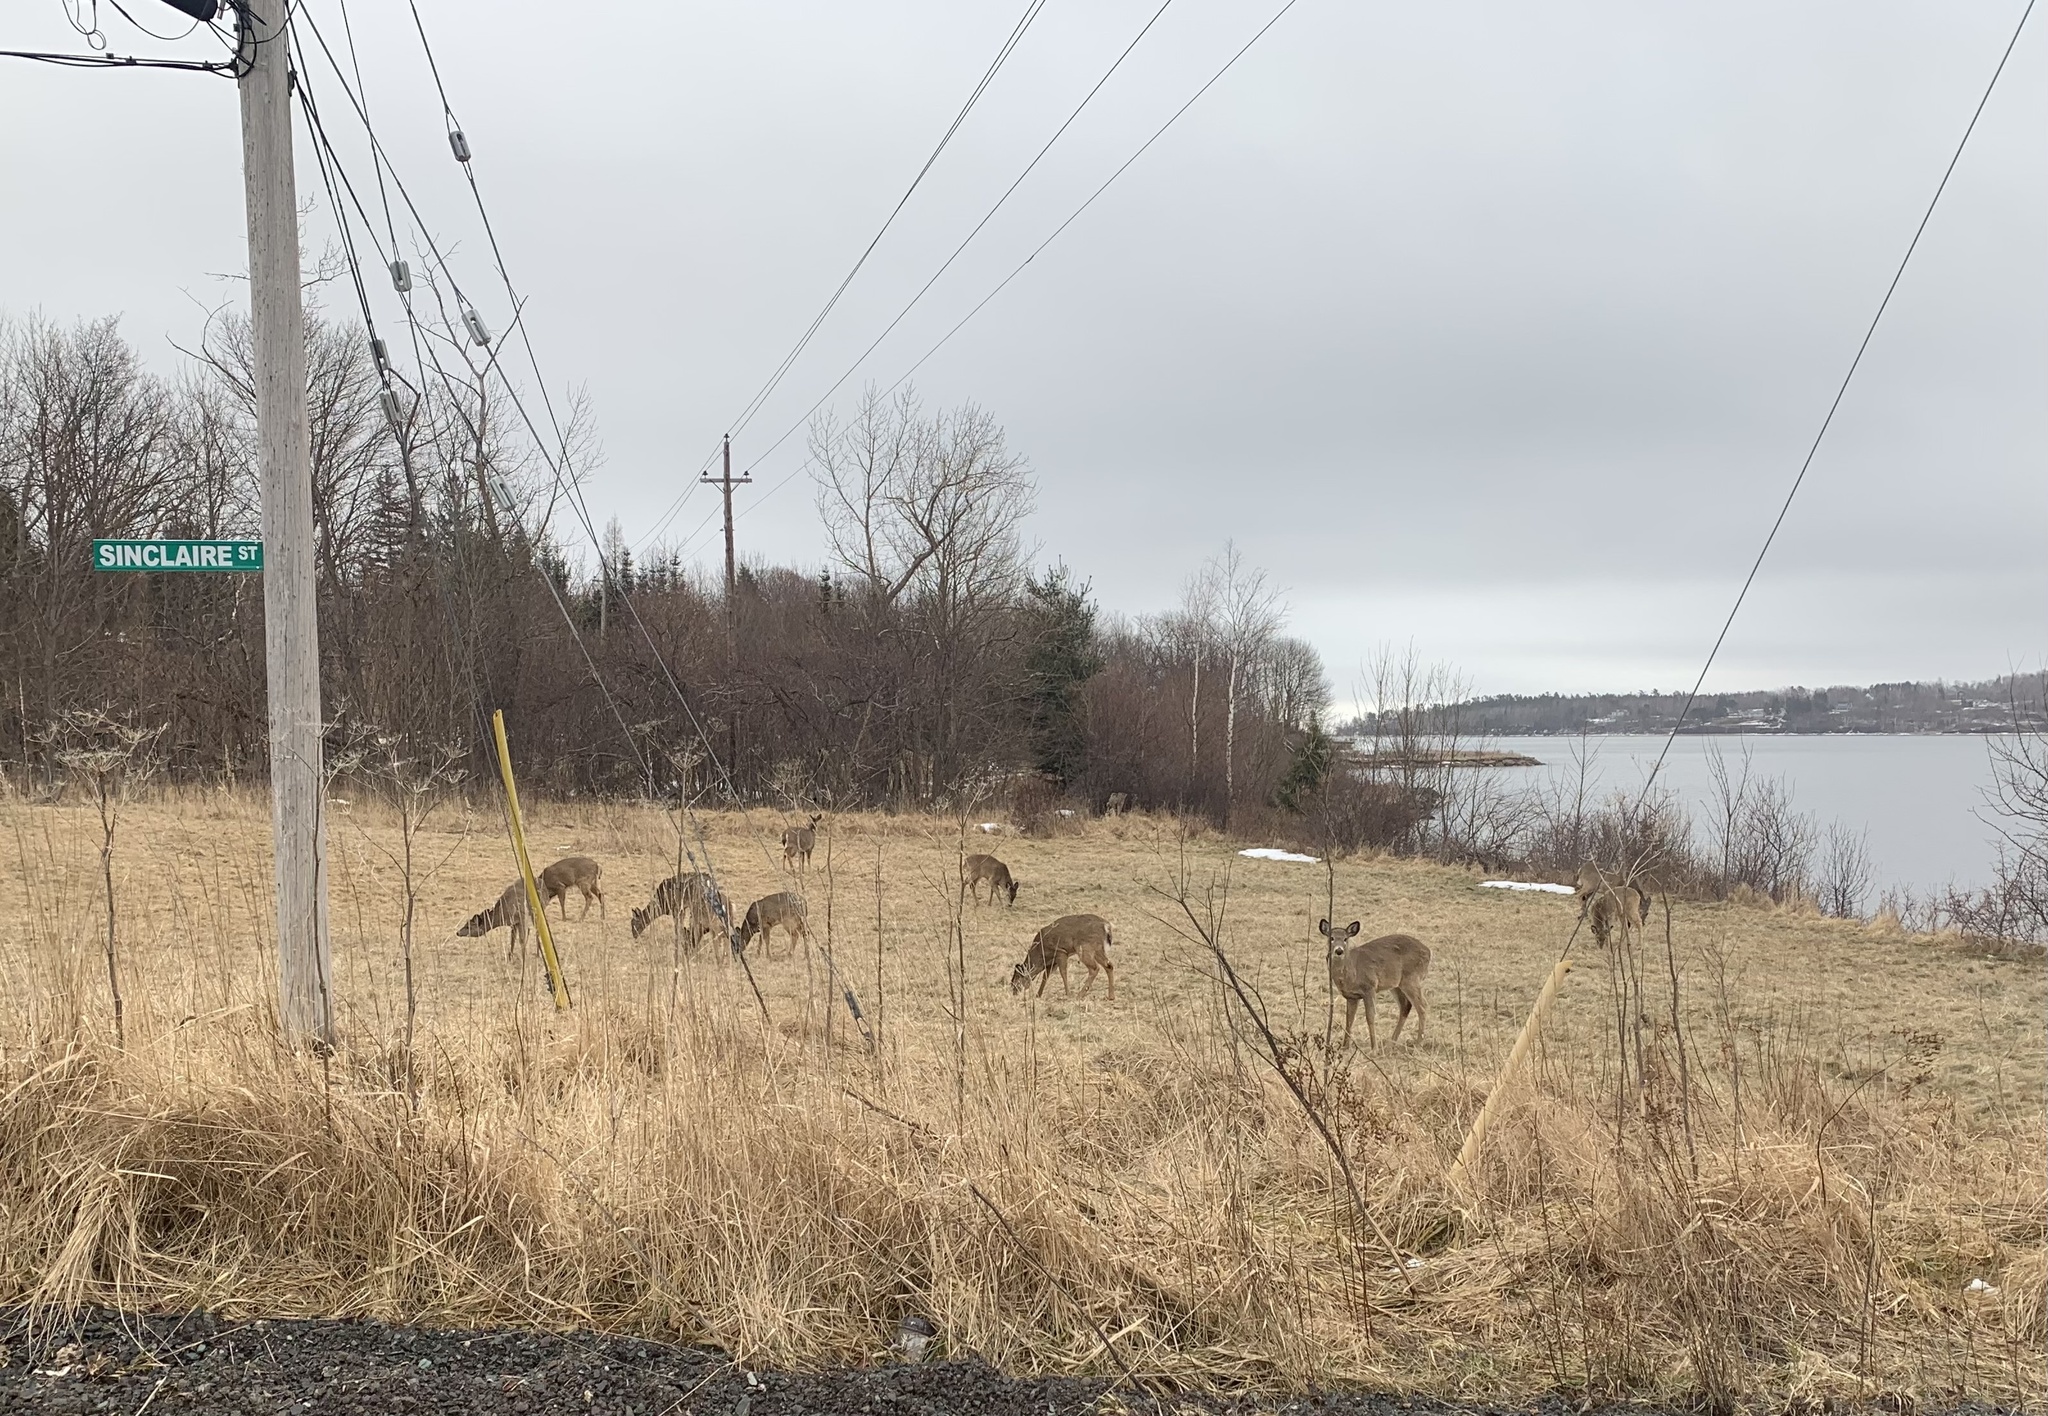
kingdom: Animalia
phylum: Chordata
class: Mammalia
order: Artiodactyla
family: Cervidae
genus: Odocoileus
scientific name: Odocoileus virginianus
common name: White-tailed deer
